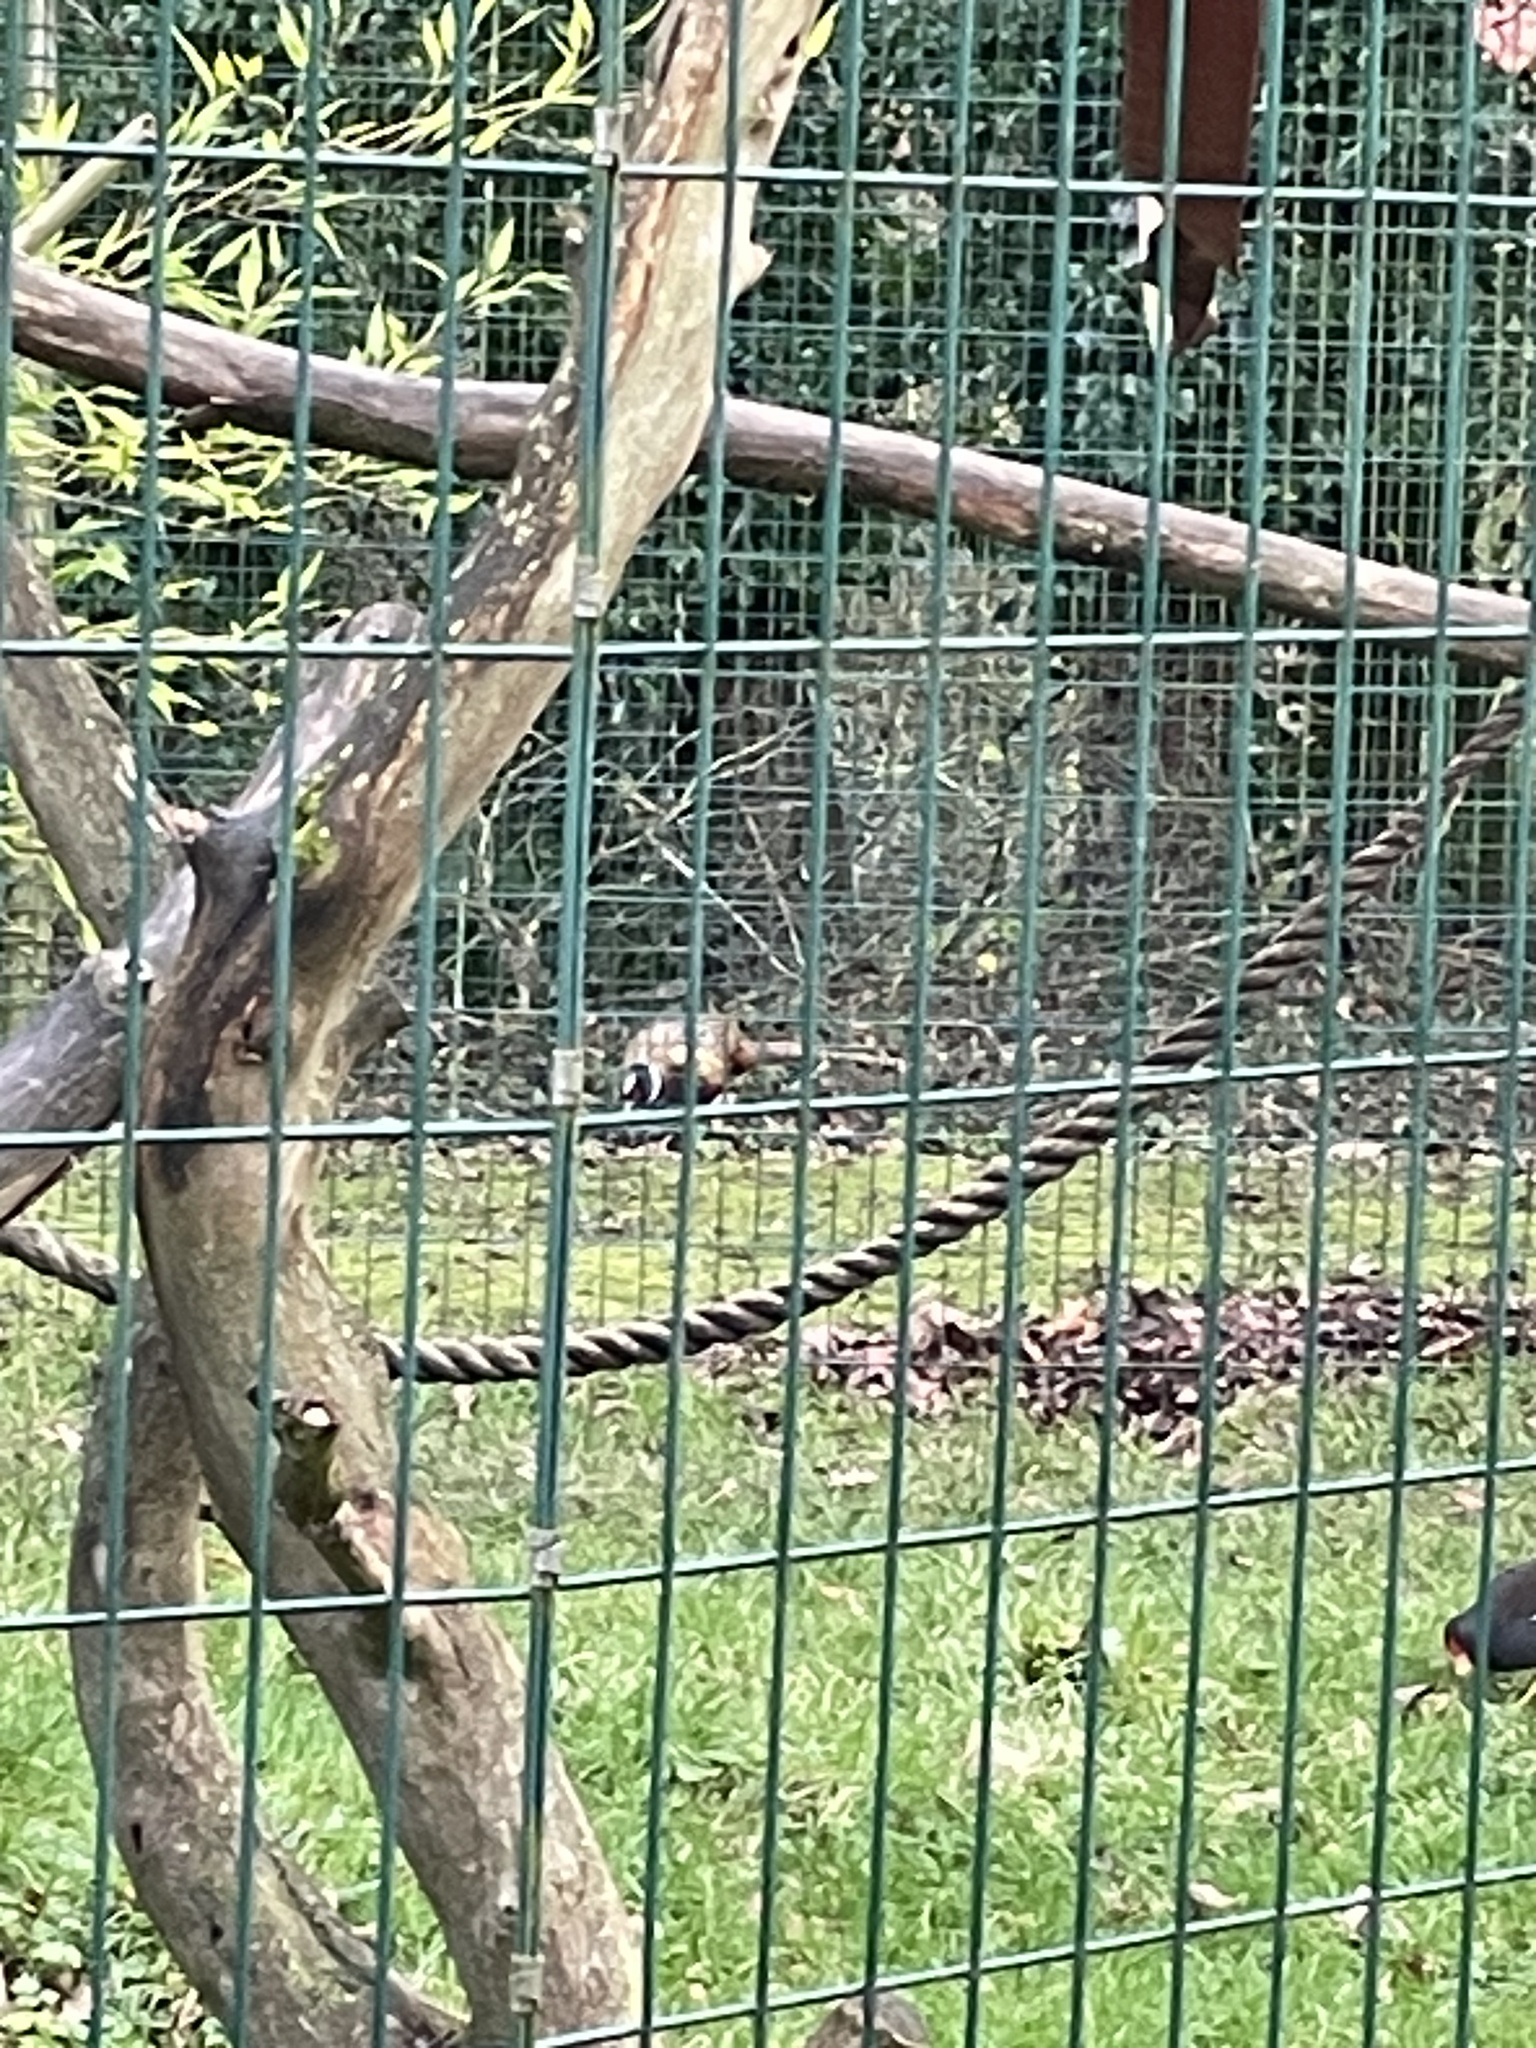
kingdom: Animalia
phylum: Chordata
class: Aves
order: Galliformes
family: Phasianidae
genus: Phasianus
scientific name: Phasianus colchicus
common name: Common pheasant
